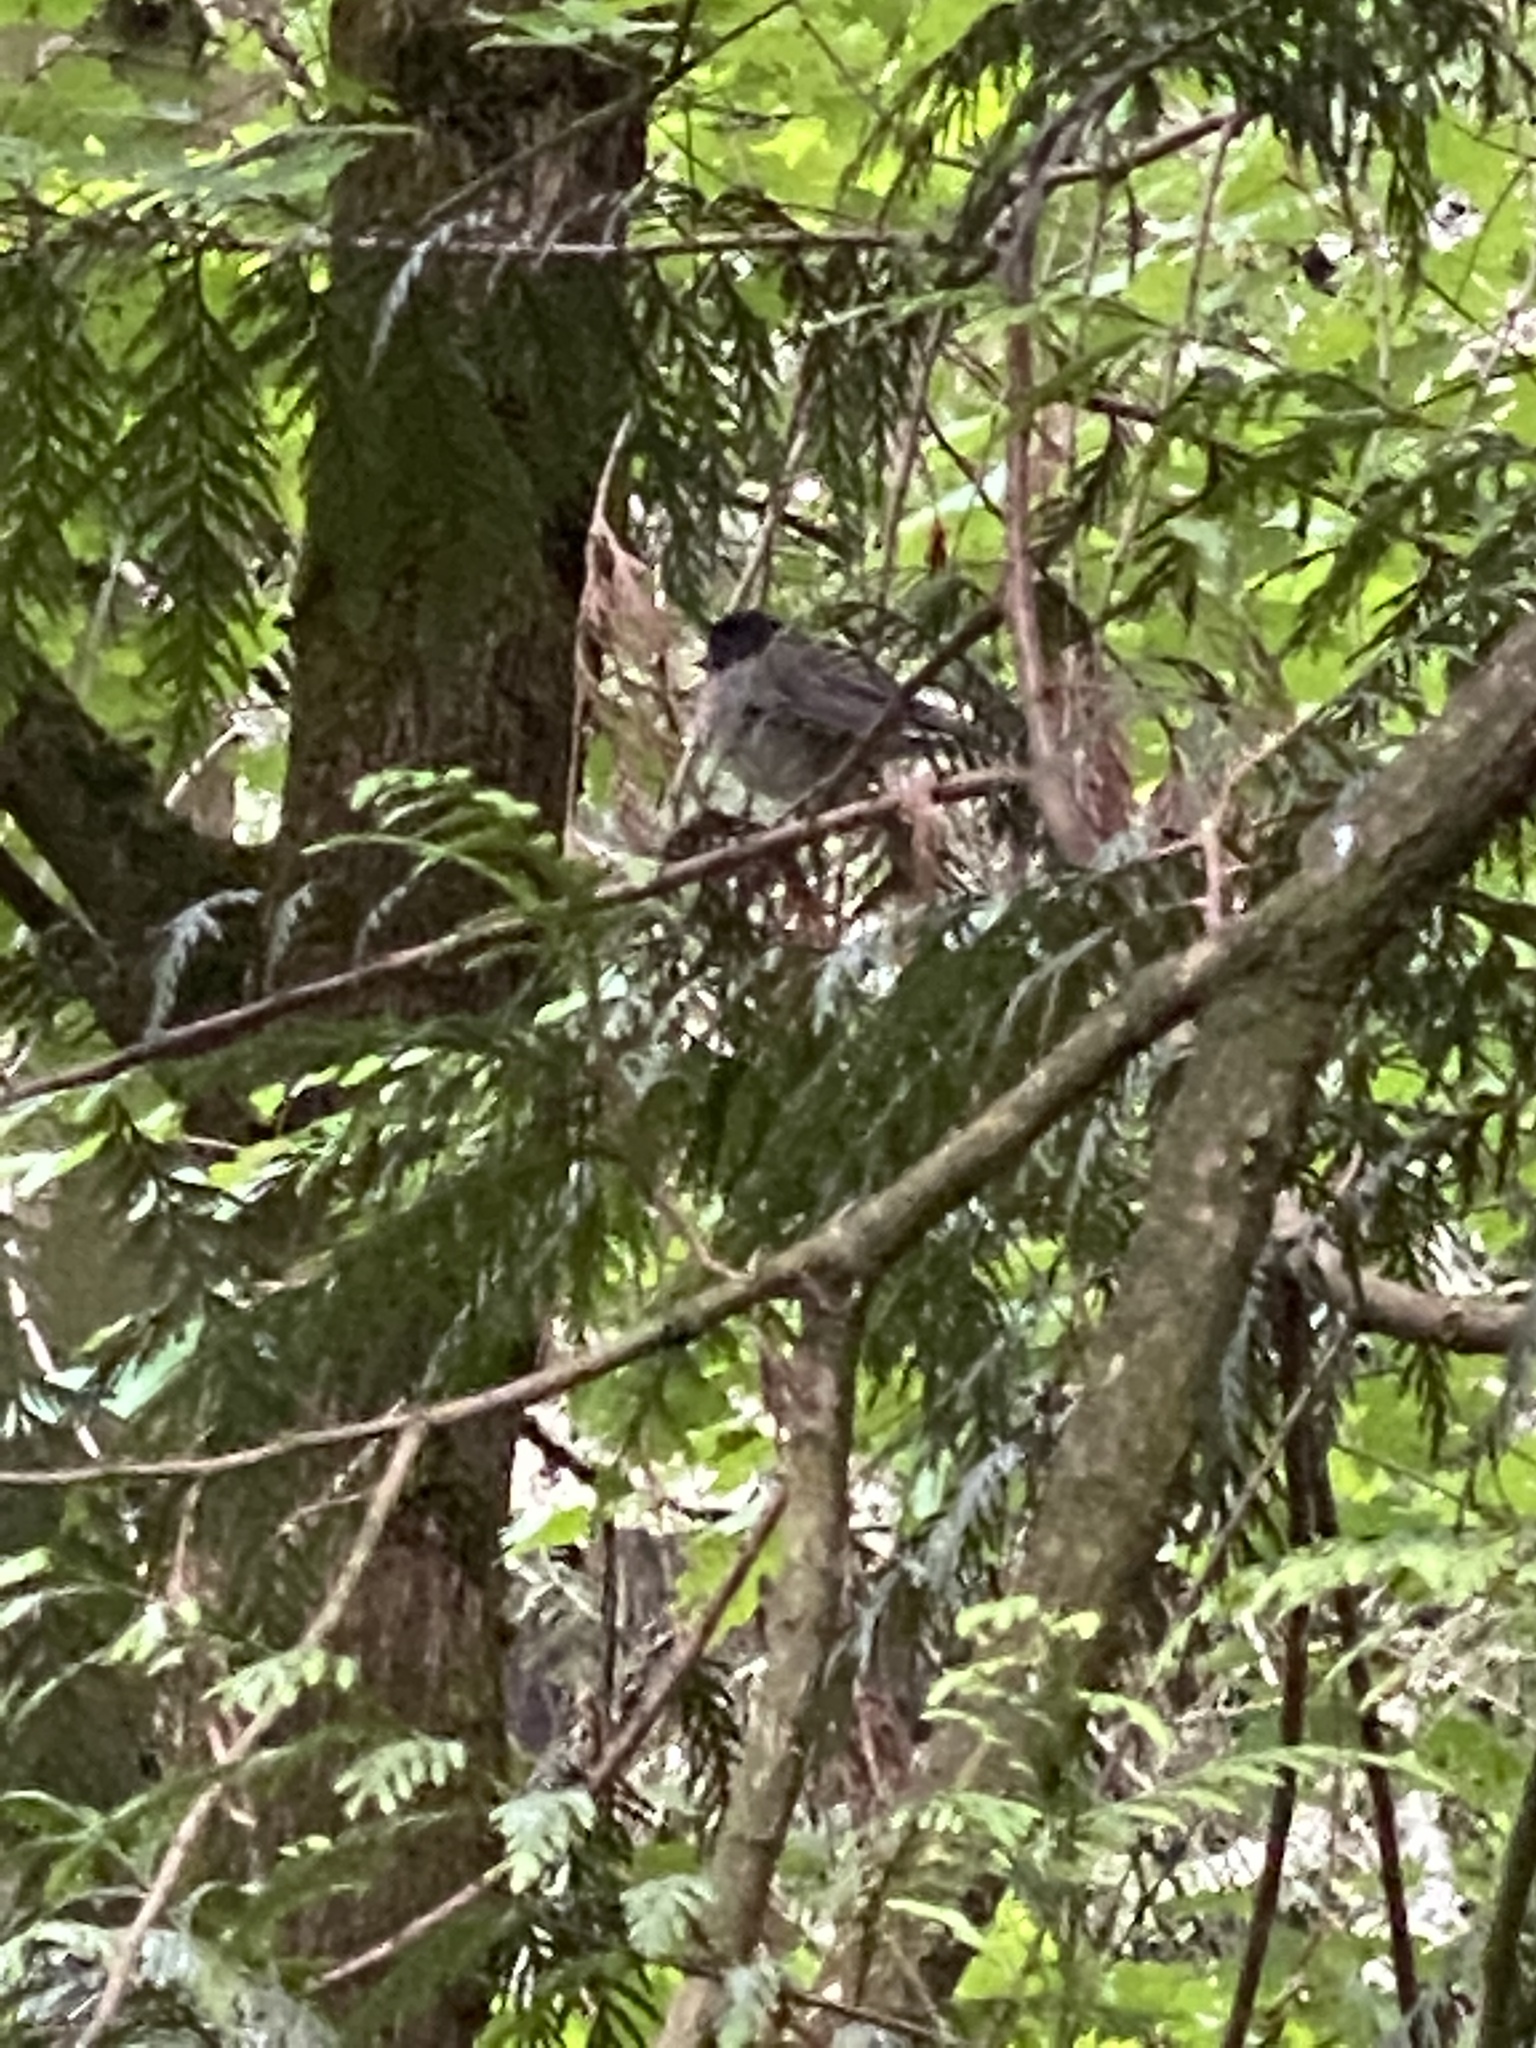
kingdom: Animalia
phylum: Chordata
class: Aves
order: Passeriformes
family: Passerellidae
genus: Junco
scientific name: Junco hyemalis
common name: Dark-eyed junco
